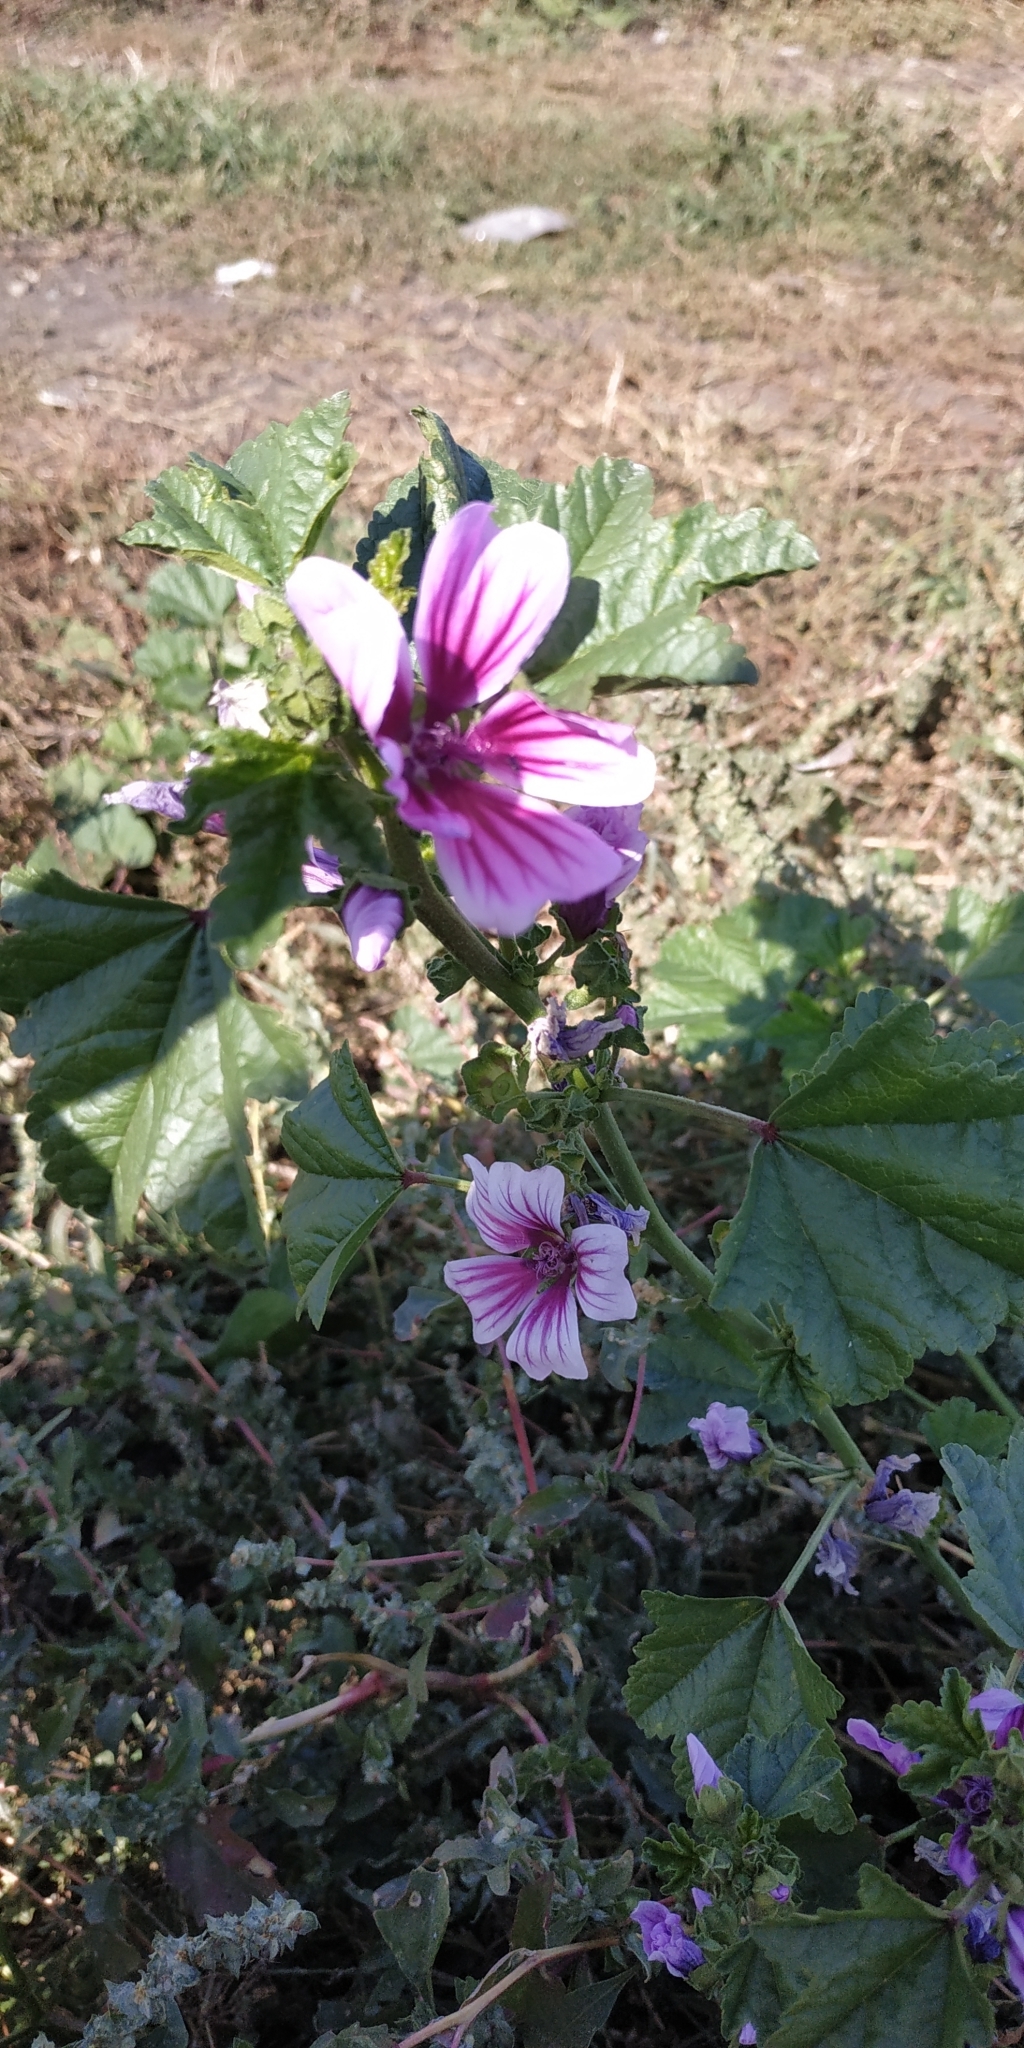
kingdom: Plantae
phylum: Tracheophyta
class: Magnoliopsida
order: Malvales
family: Malvaceae
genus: Malva
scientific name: Malva sylvestris
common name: Common mallow
